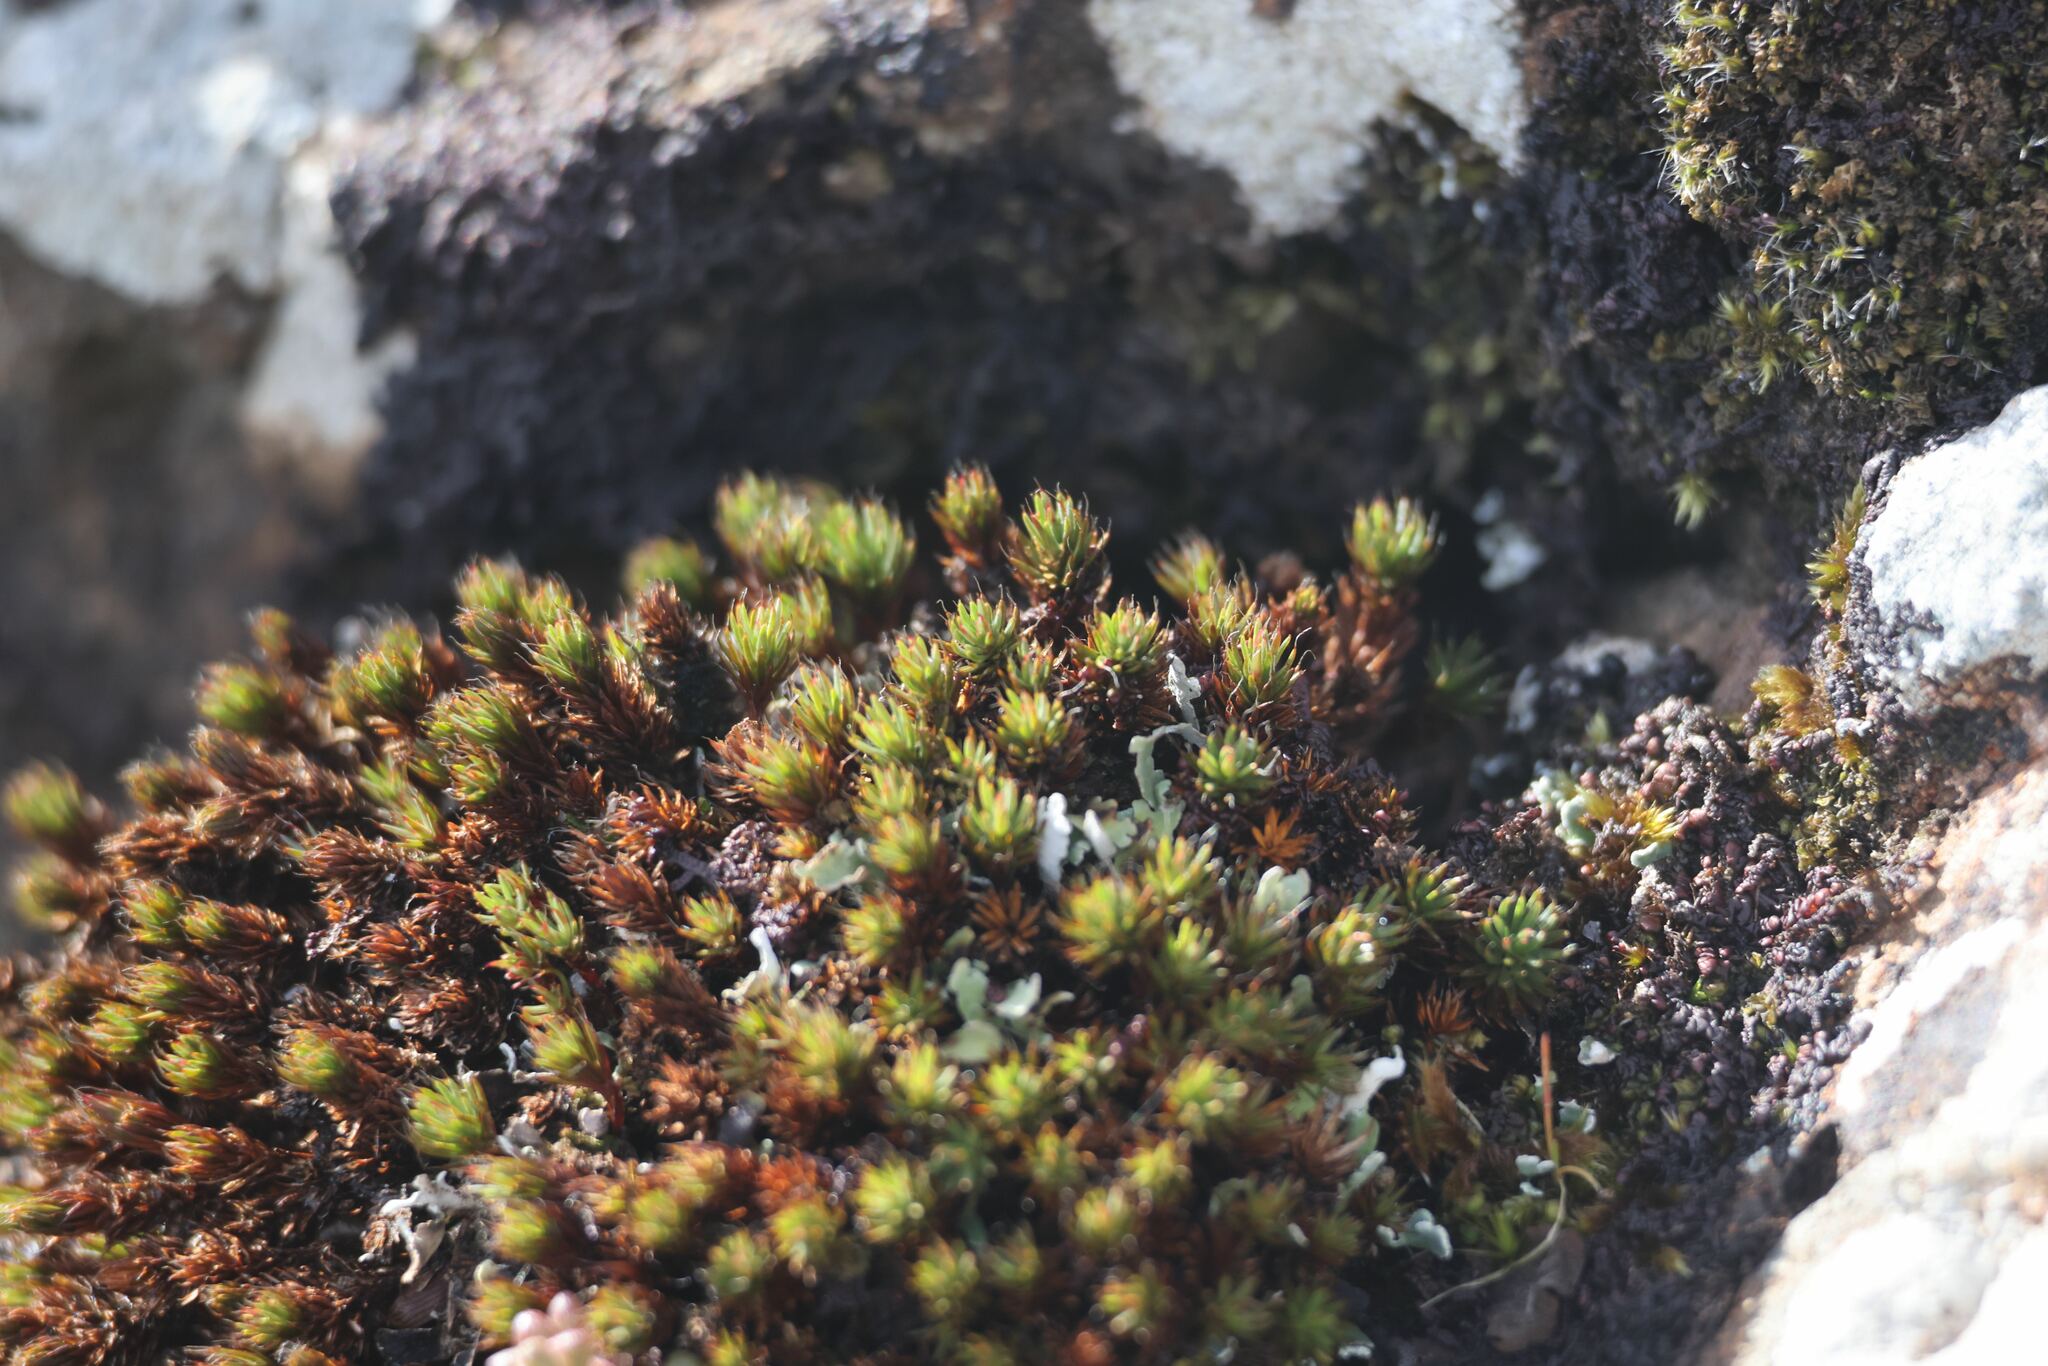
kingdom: Plantae
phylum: Bryophyta
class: Polytrichopsida
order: Polytrichales
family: Polytrichaceae
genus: Polytrichum
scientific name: Polytrichum piliferum
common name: Bristly haircap
